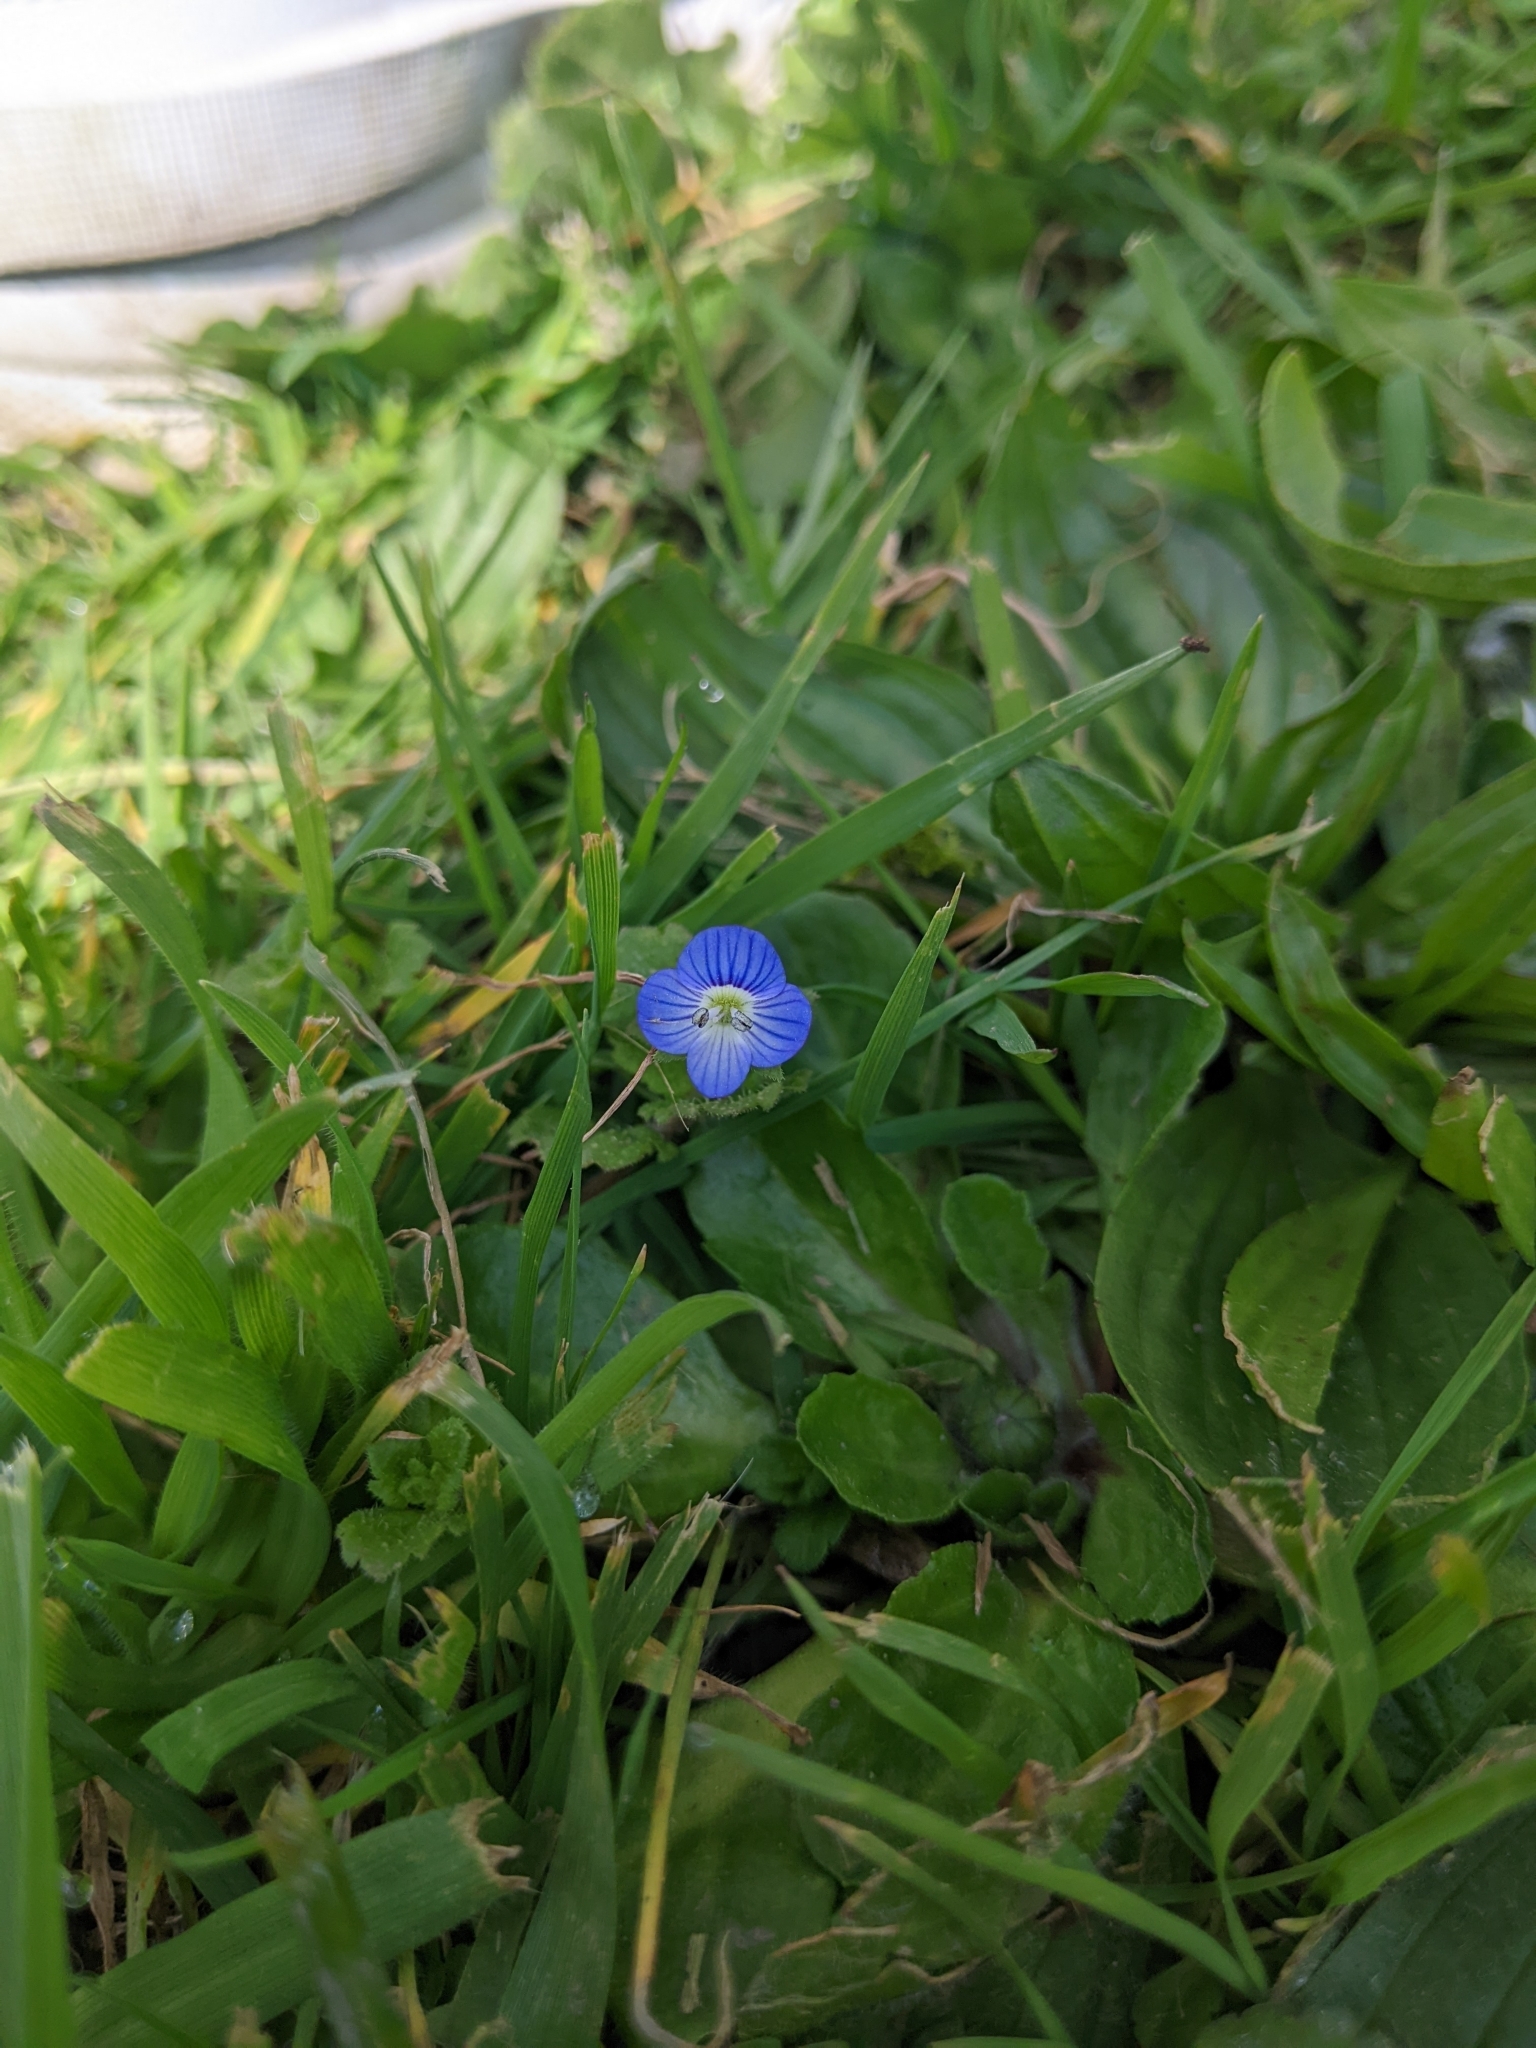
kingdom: Plantae
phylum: Tracheophyta
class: Magnoliopsida
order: Lamiales
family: Plantaginaceae
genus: Veronica
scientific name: Veronica persica
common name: Common field-speedwell
